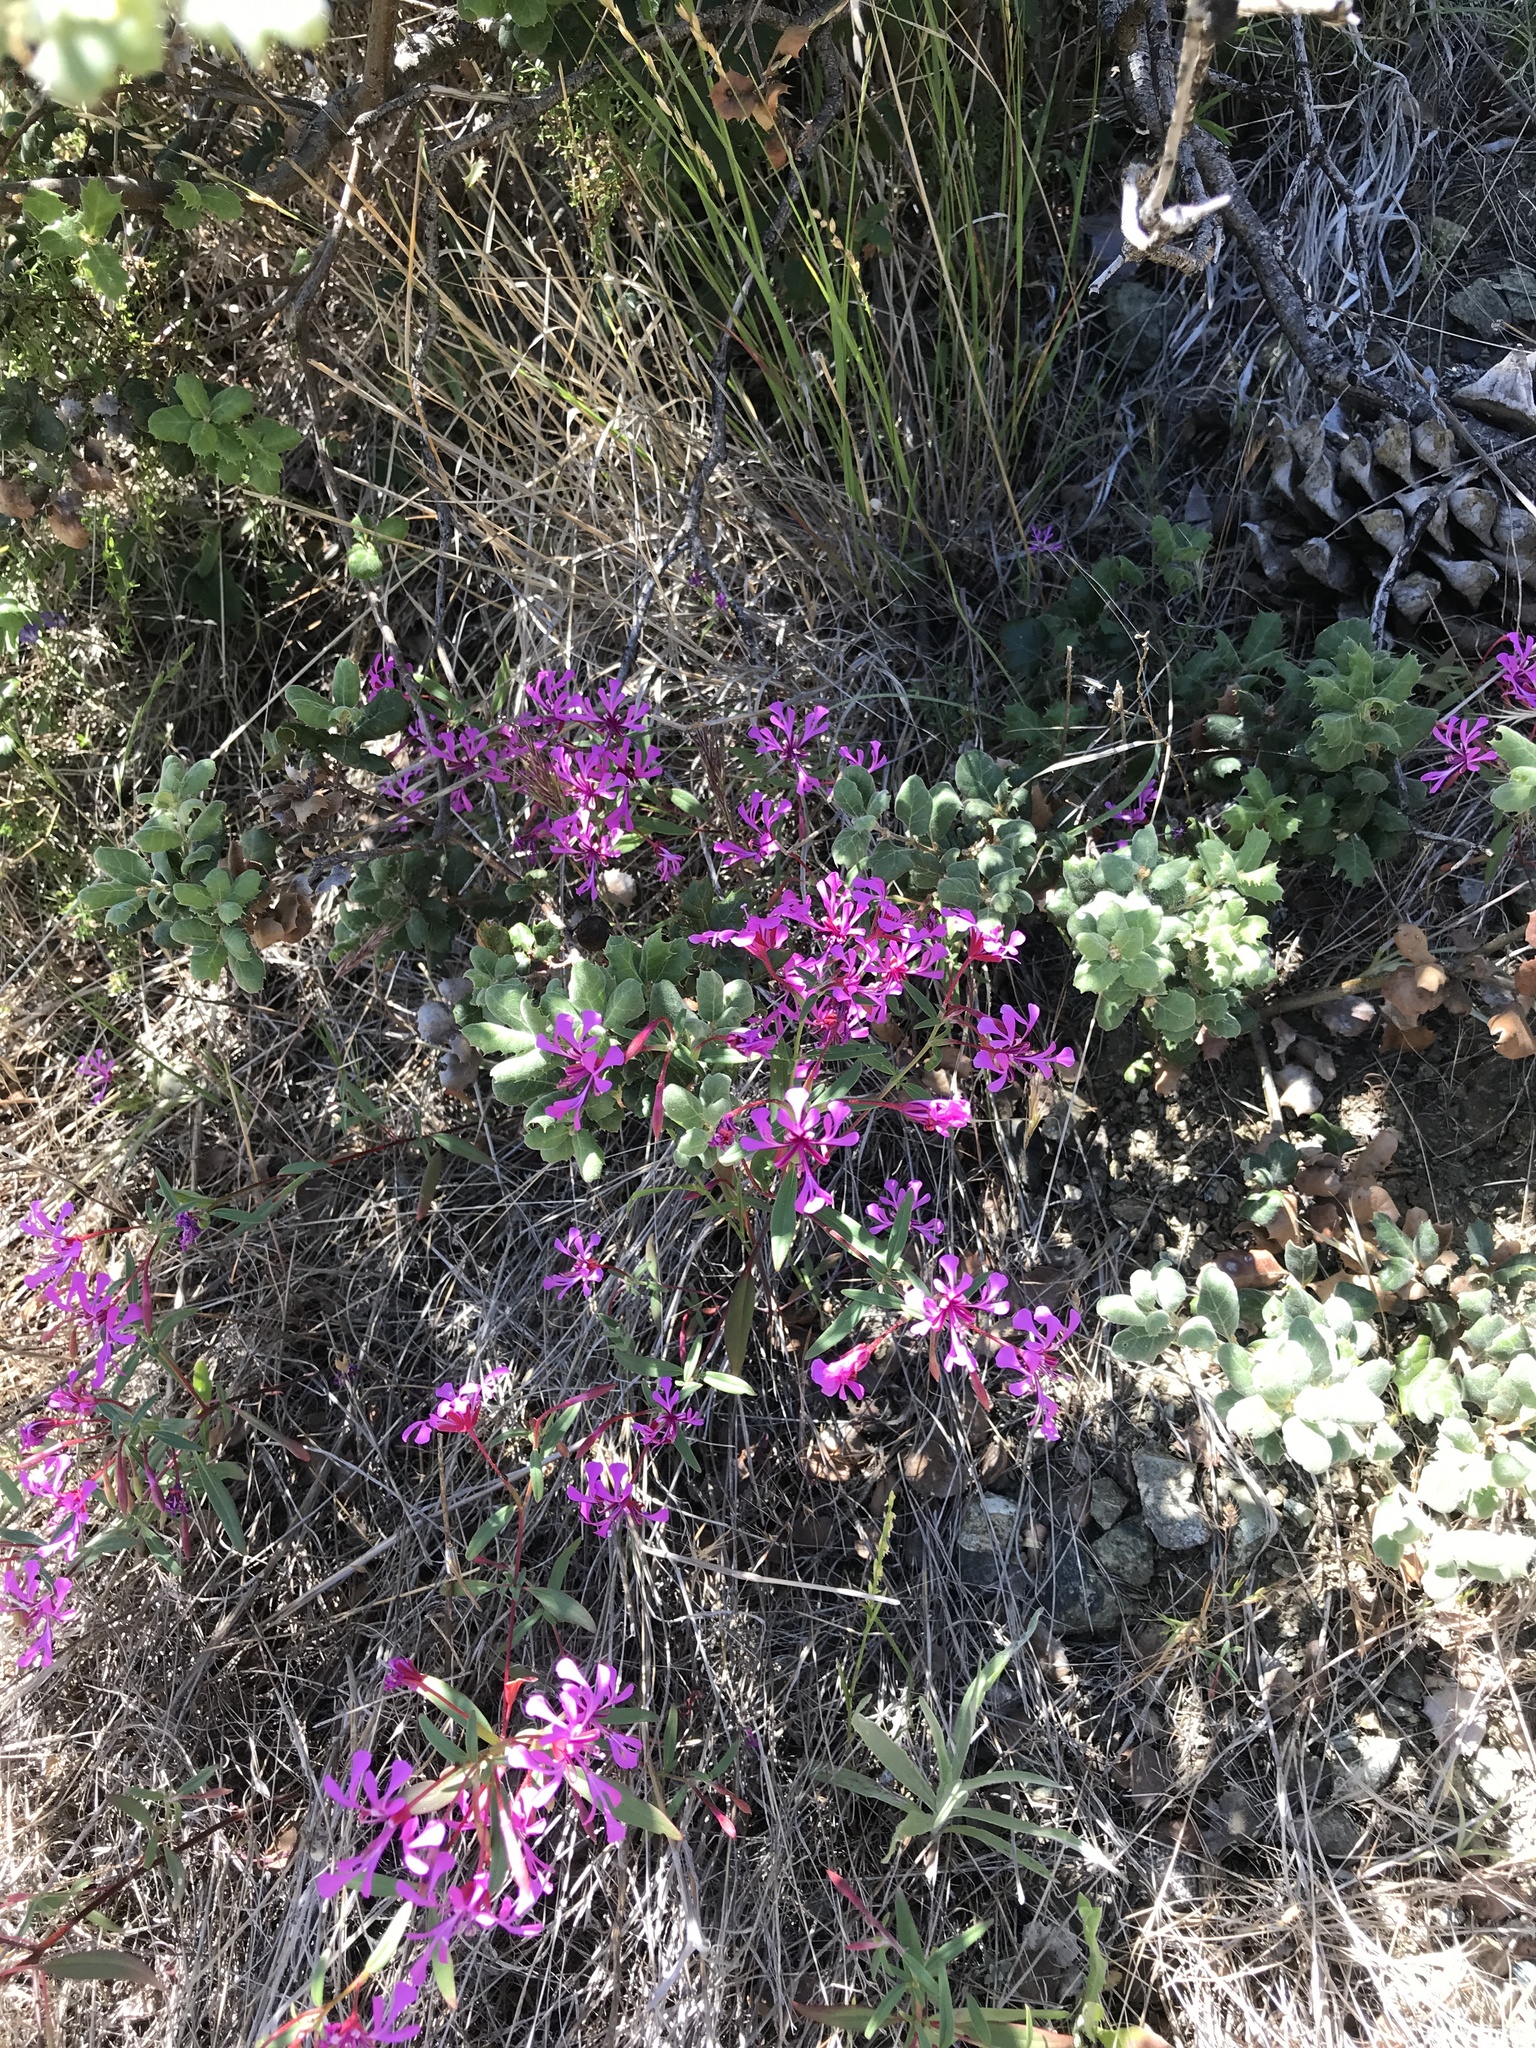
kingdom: Plantae
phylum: Tracheophyta
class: Magnoliopsida
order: Myrtales
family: Onagraceae
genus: Clarkia
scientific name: Clarkia concinna
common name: Red-ribbons
